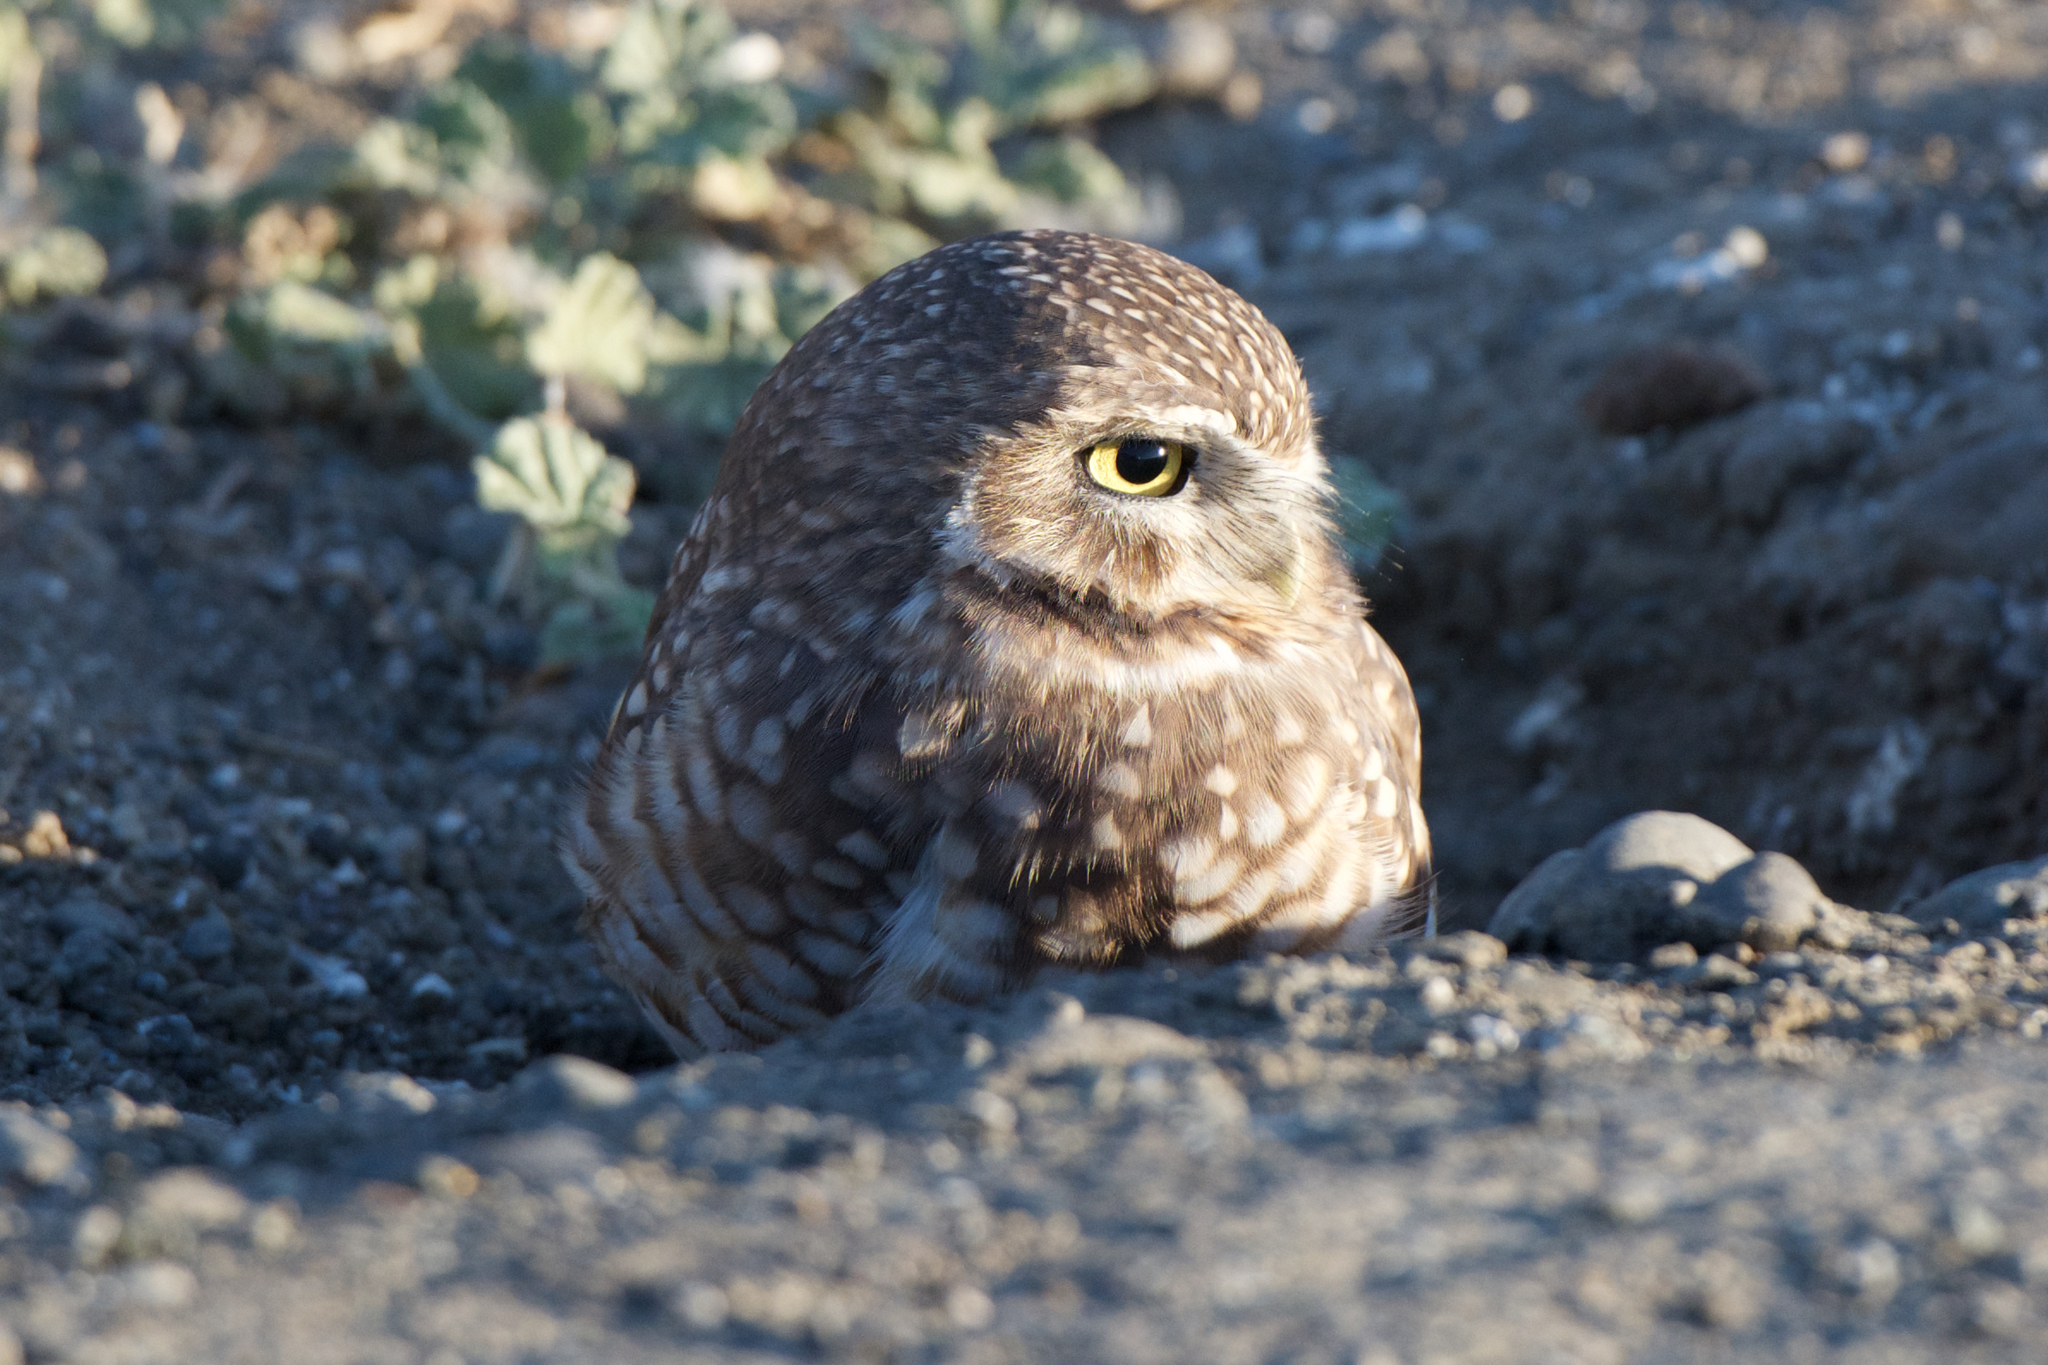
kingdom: Animalia
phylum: Chordata
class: Aves
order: Strigiformes
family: Strigidae
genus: Athene
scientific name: Athene cunicularia
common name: Burrowing owl
